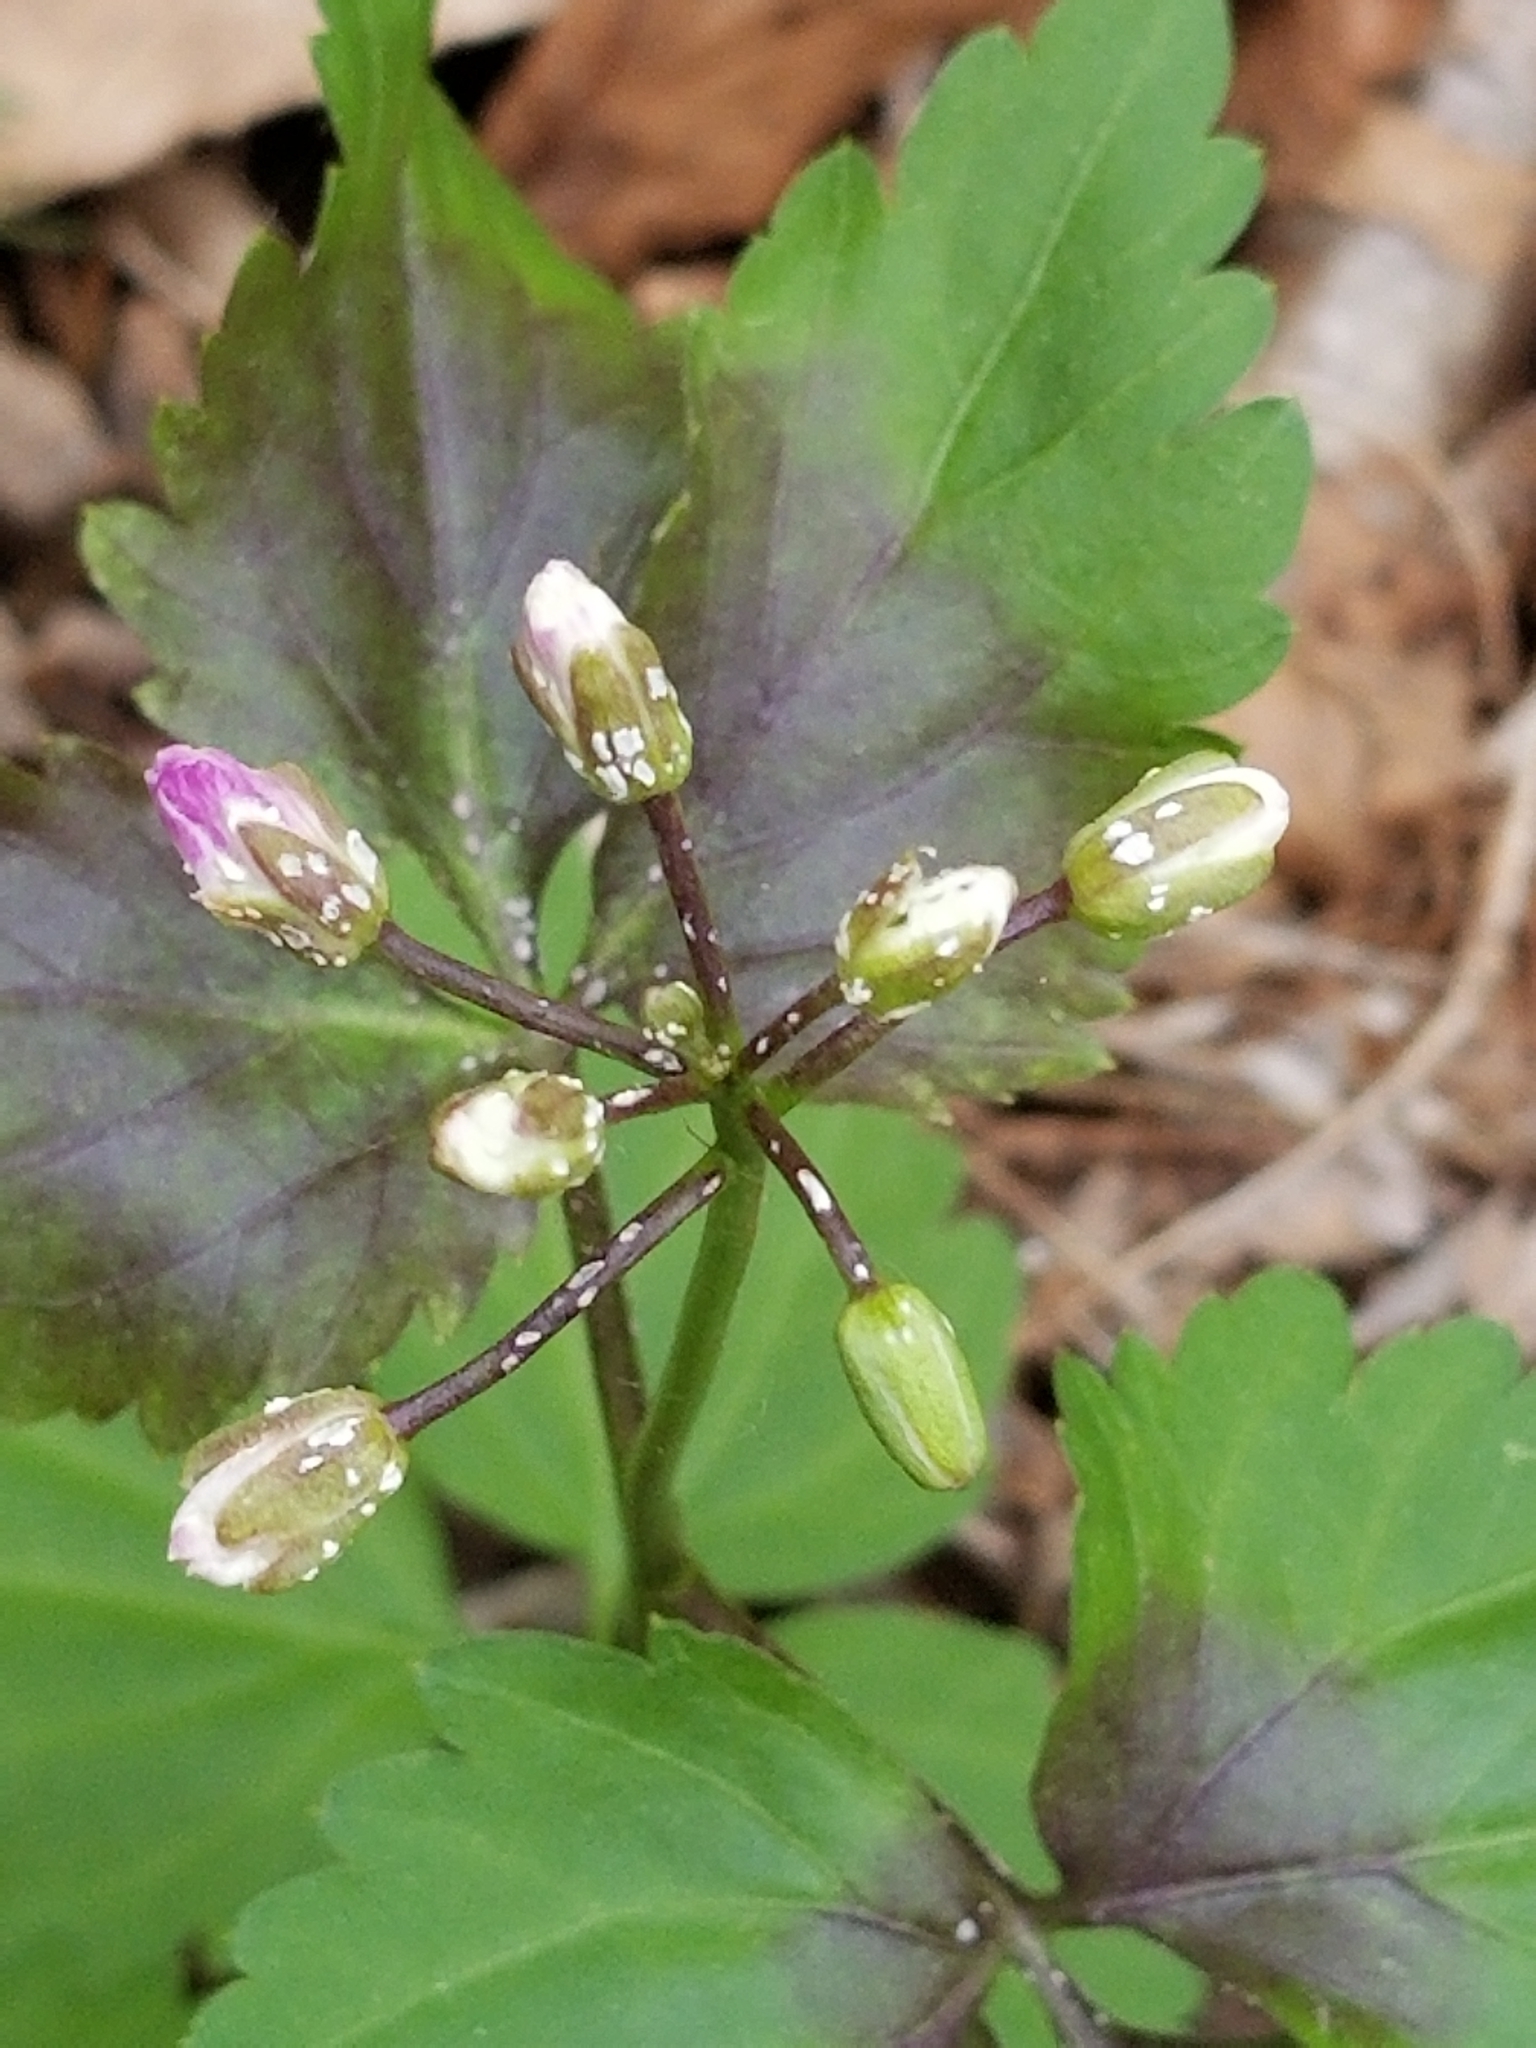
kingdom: Plantae
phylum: Tracheophyta
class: Magnoliopsida
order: Brassicales
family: Brassicaceae
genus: Cardamine
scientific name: Cardamine diphylla
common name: Broad-leaved toothwort
